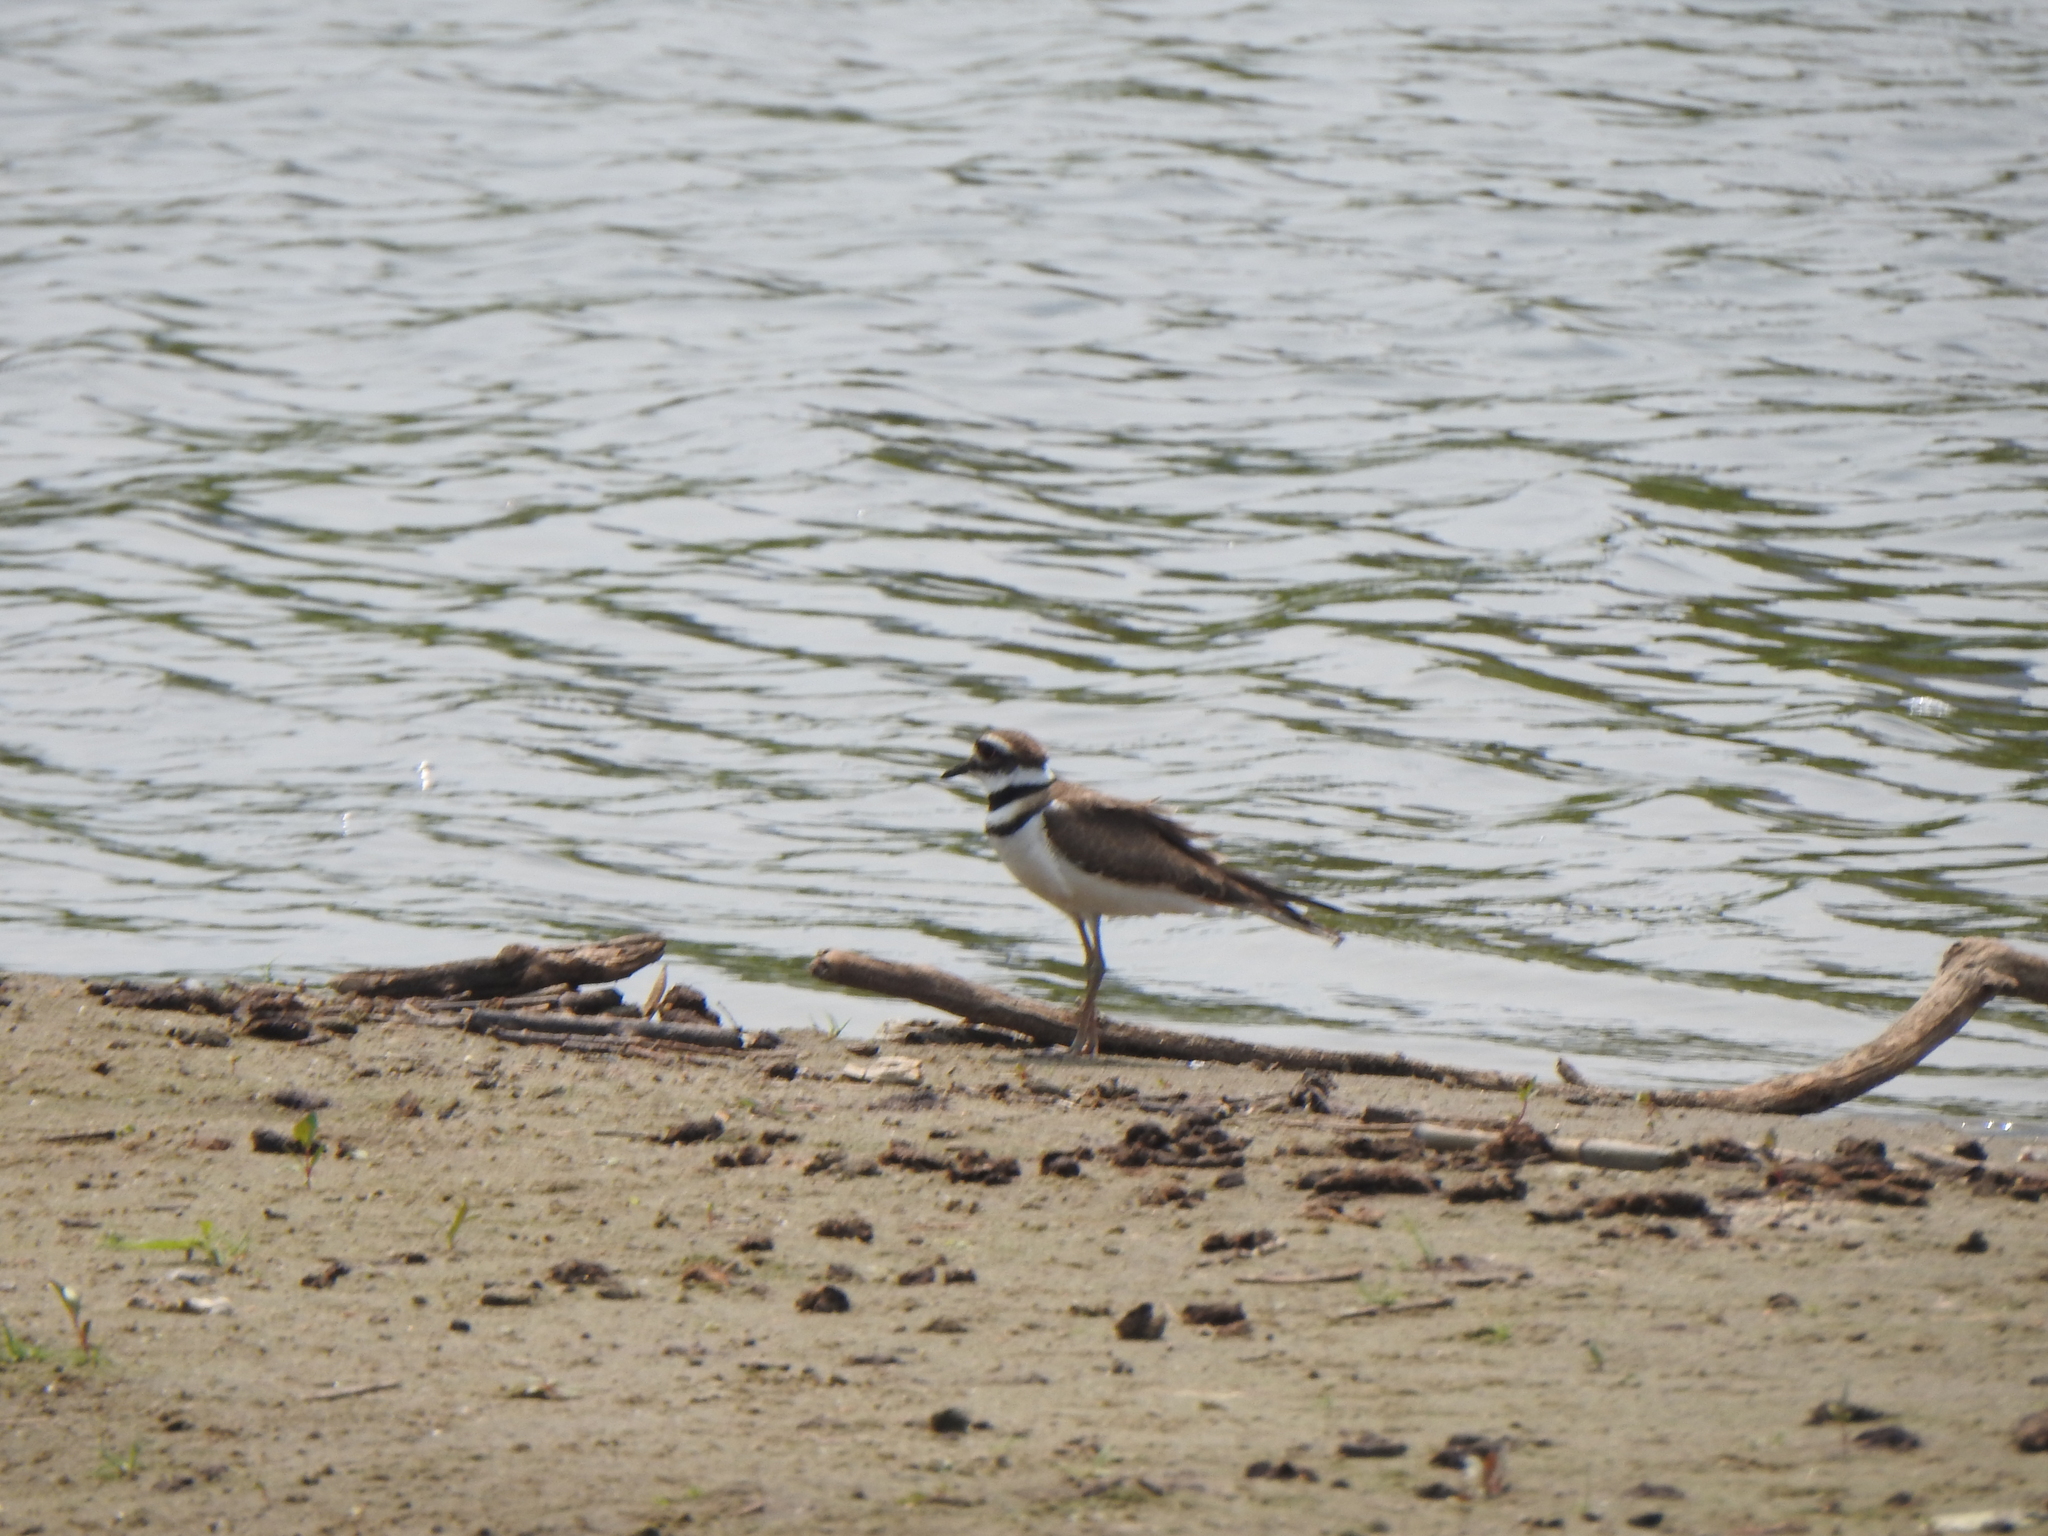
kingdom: Animalia
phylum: Chordata
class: Aves
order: Charadriiformes
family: Charadriidae
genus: Charadrius
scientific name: Charadrius vociferus
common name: Killdeer
